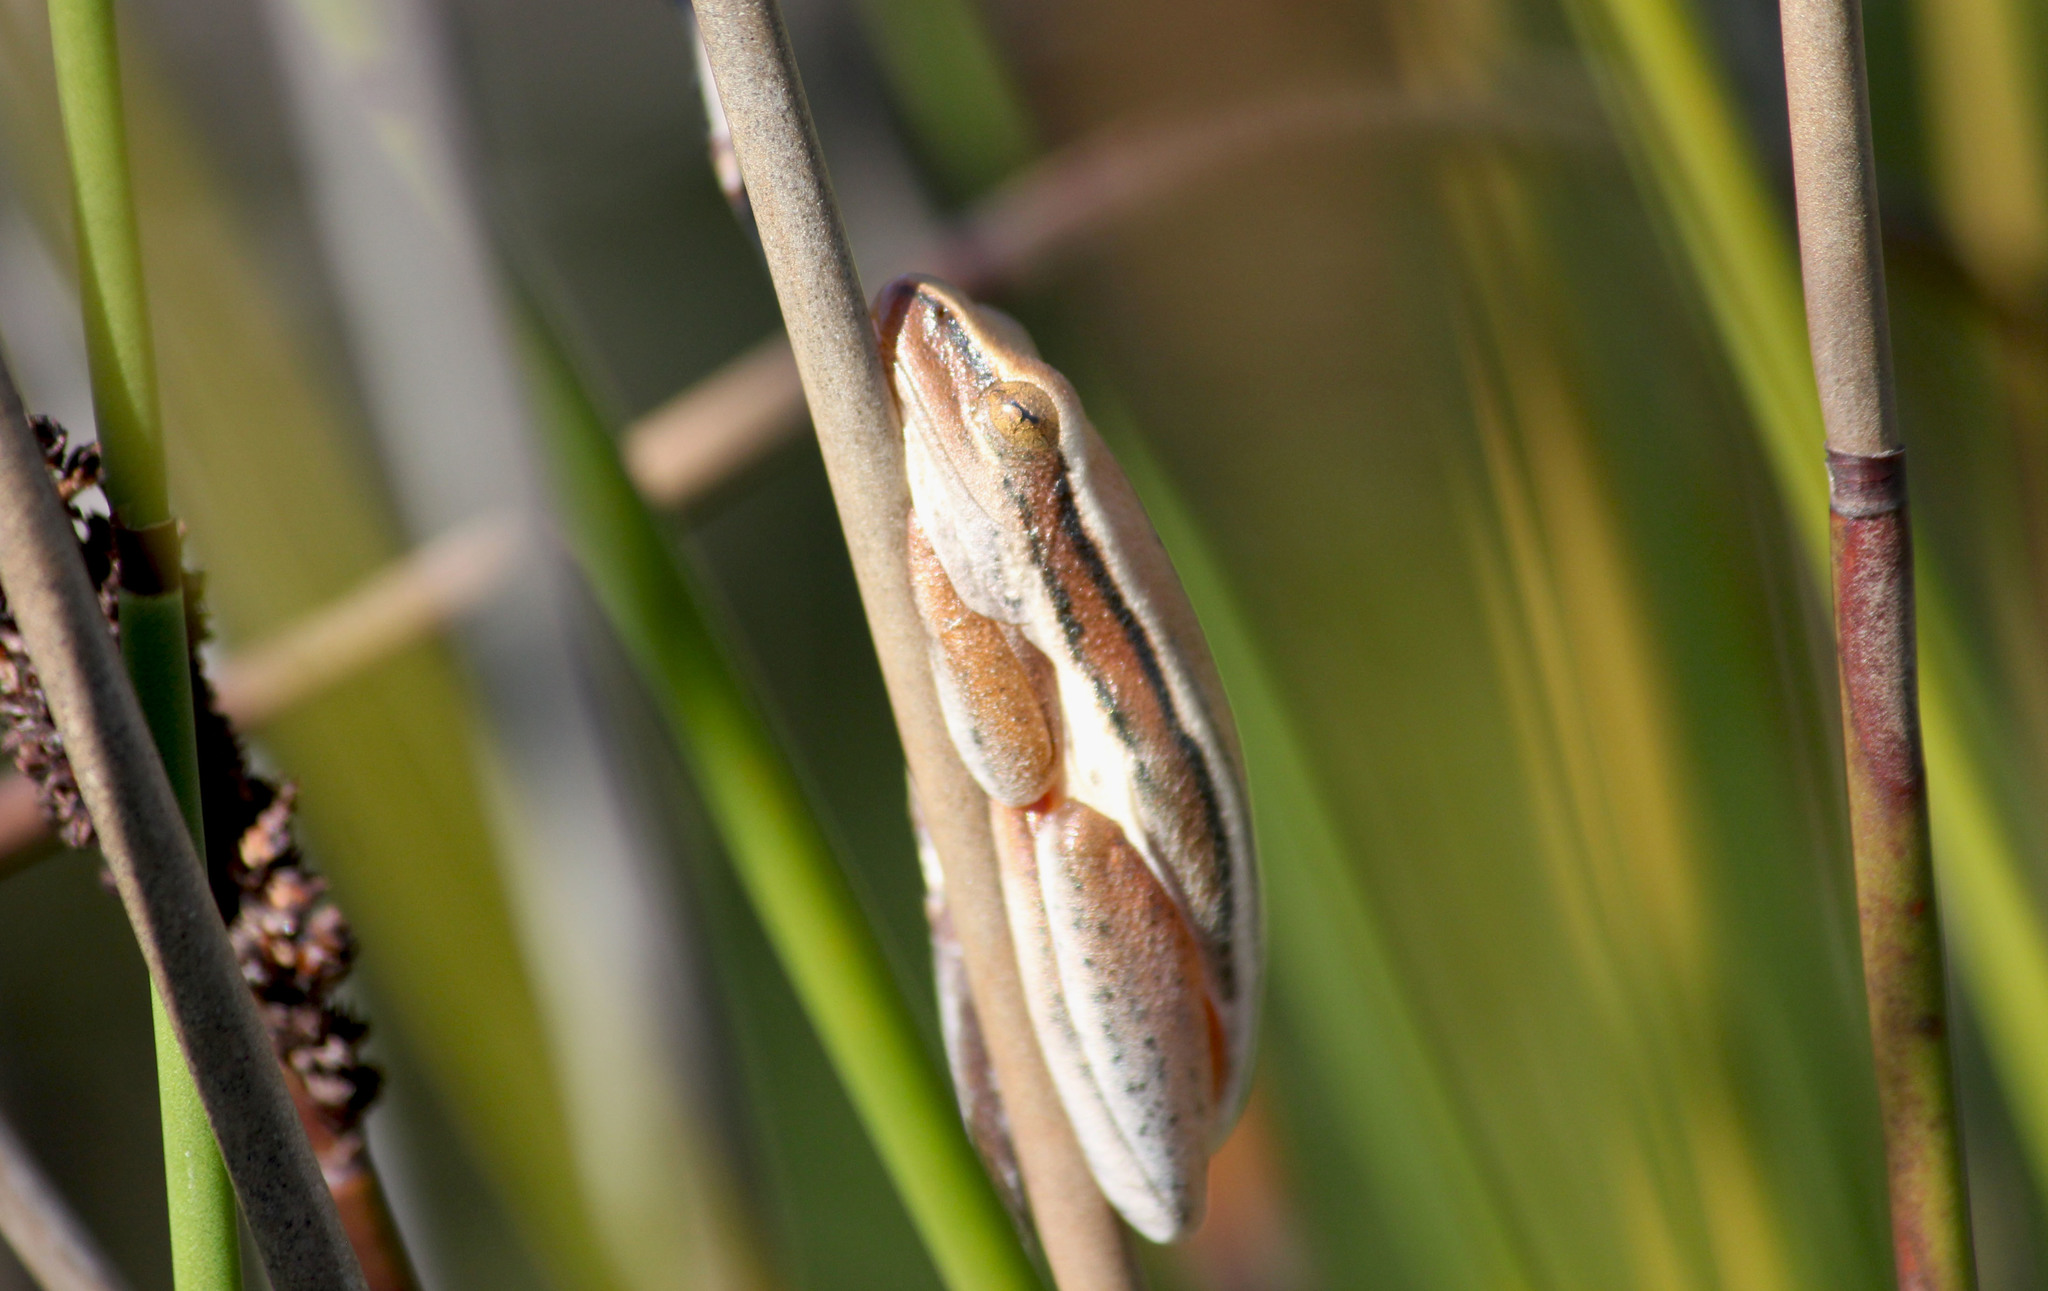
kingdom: Animalia
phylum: Chordata
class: Amphibia
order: Anura
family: Hyperoliidae
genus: Hyperolius
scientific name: Hyperolius horstockii
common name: Arum lily frog
